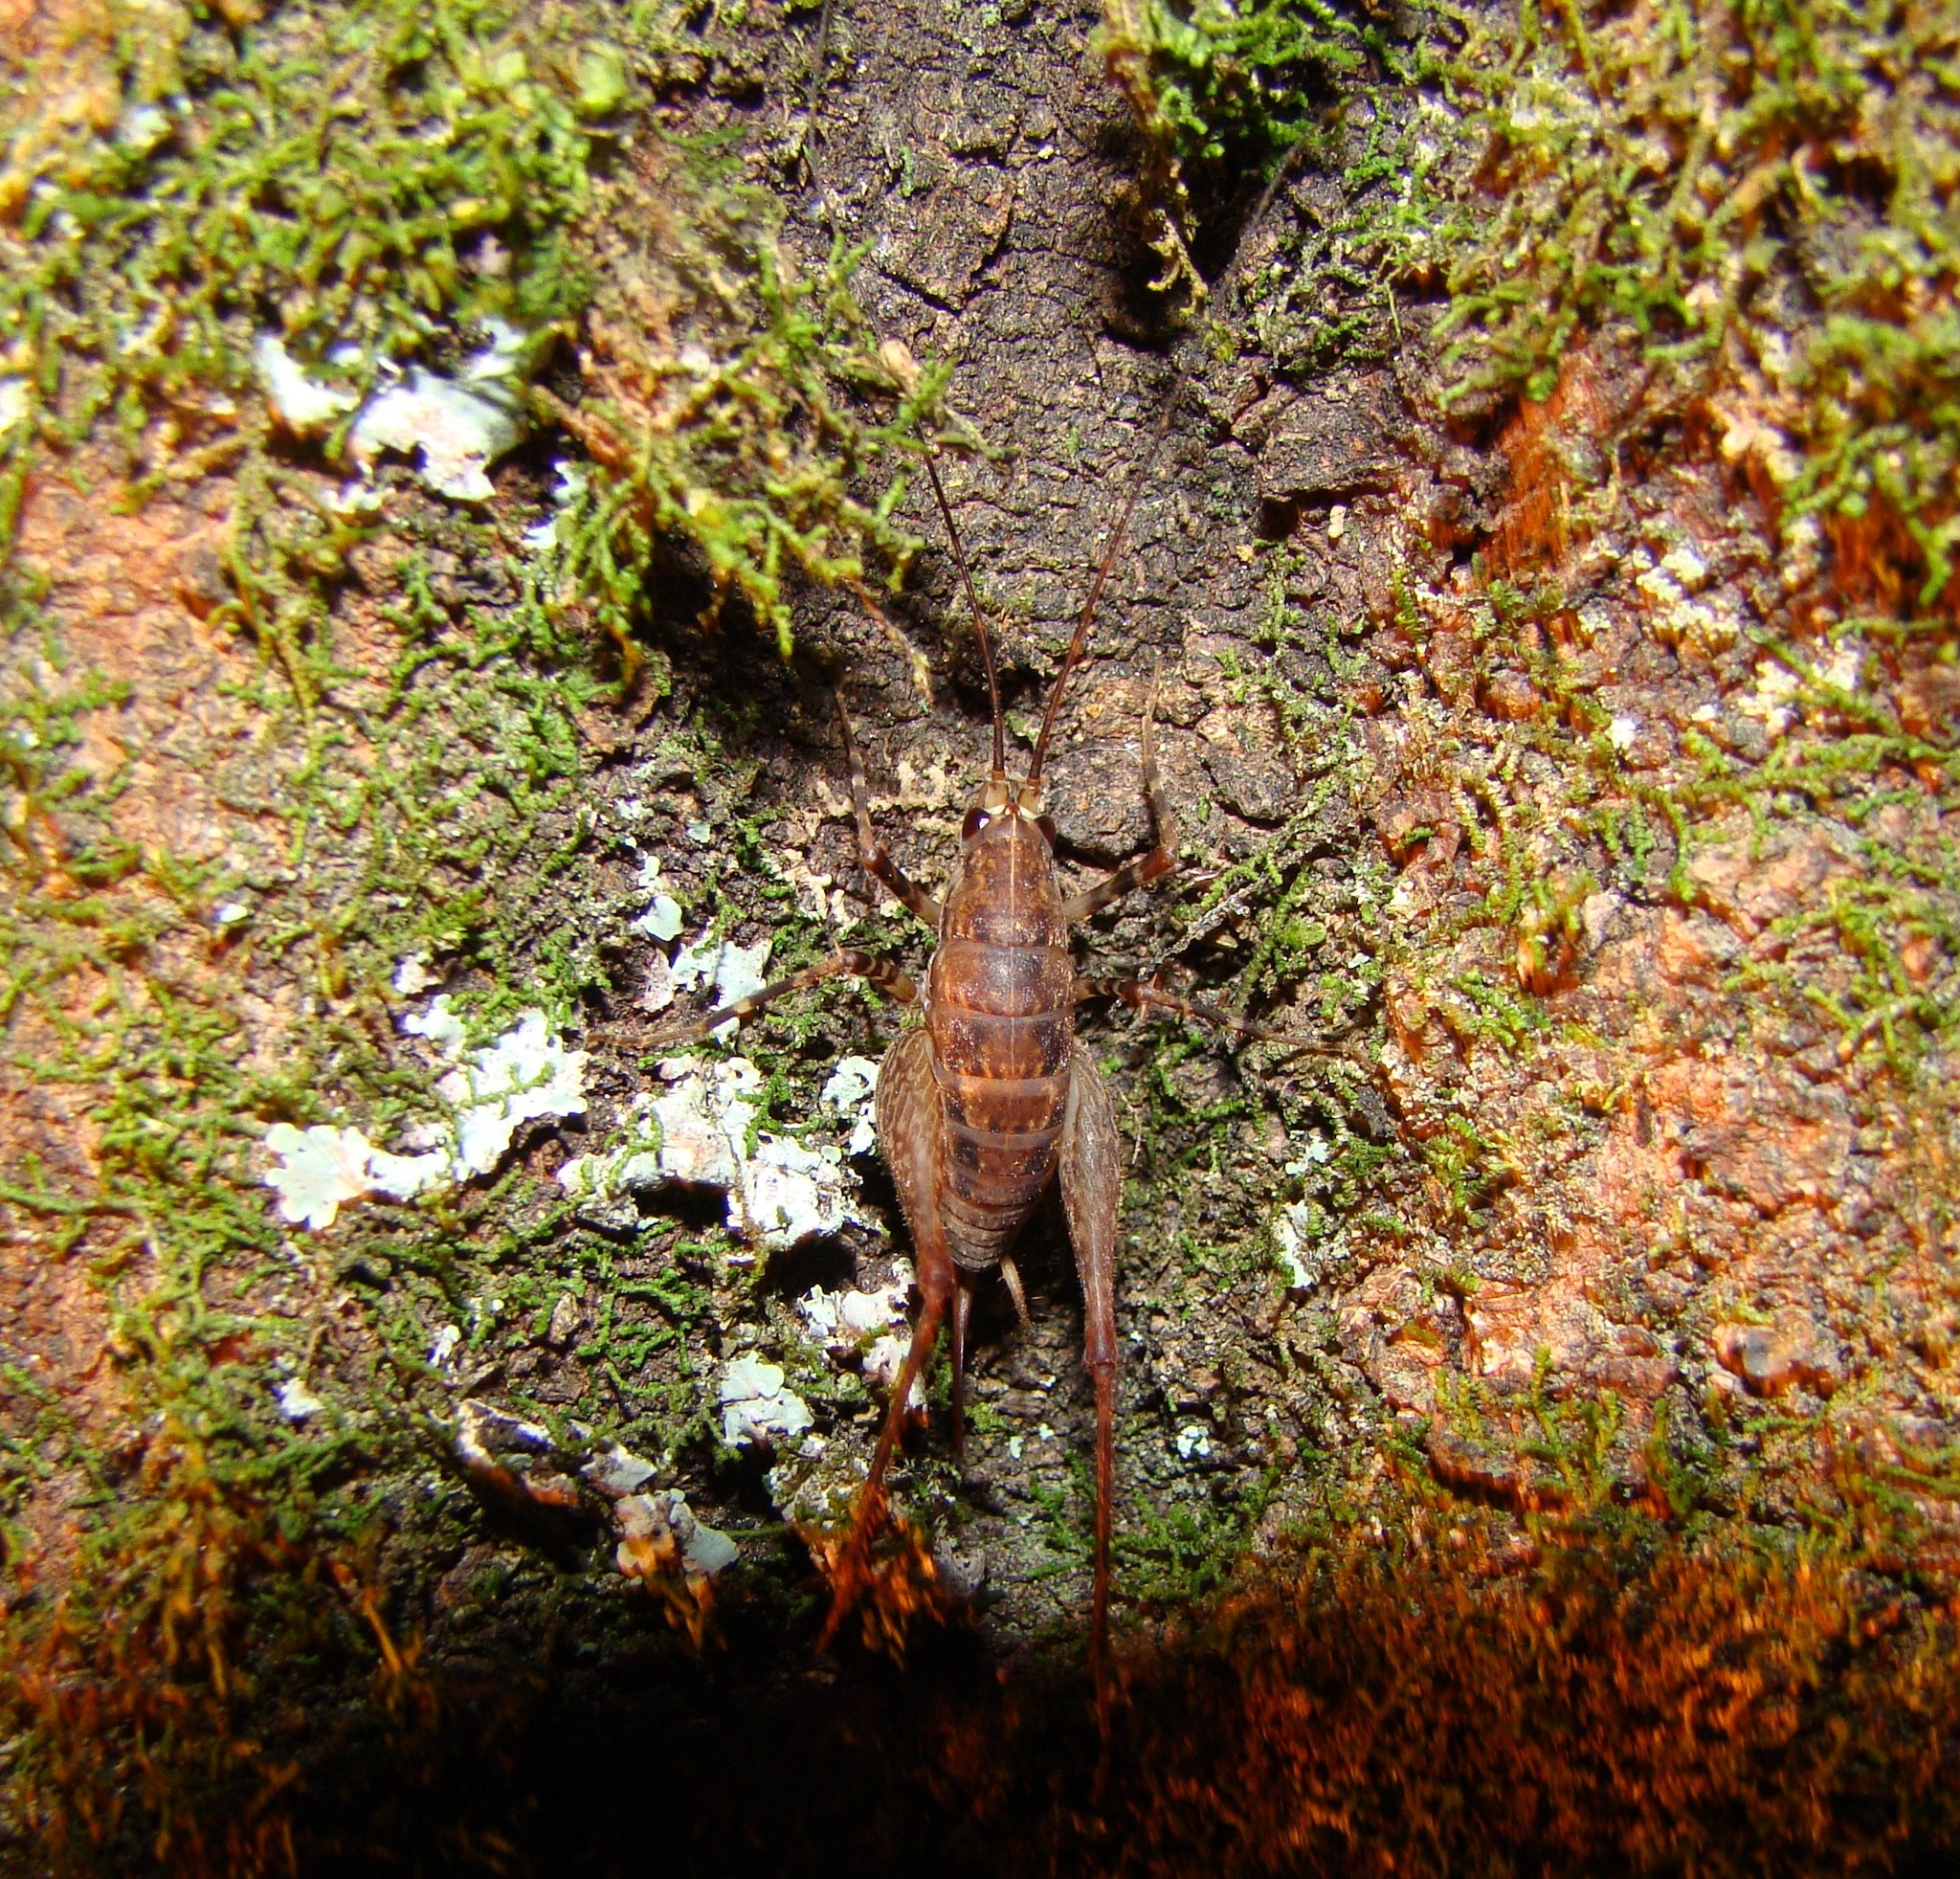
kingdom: Animalia
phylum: Arthropoda
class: Insecta
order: Orthoptera
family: Rhaphidophoridae
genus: Pleioplectron
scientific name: Pleioplectron hudsoni
